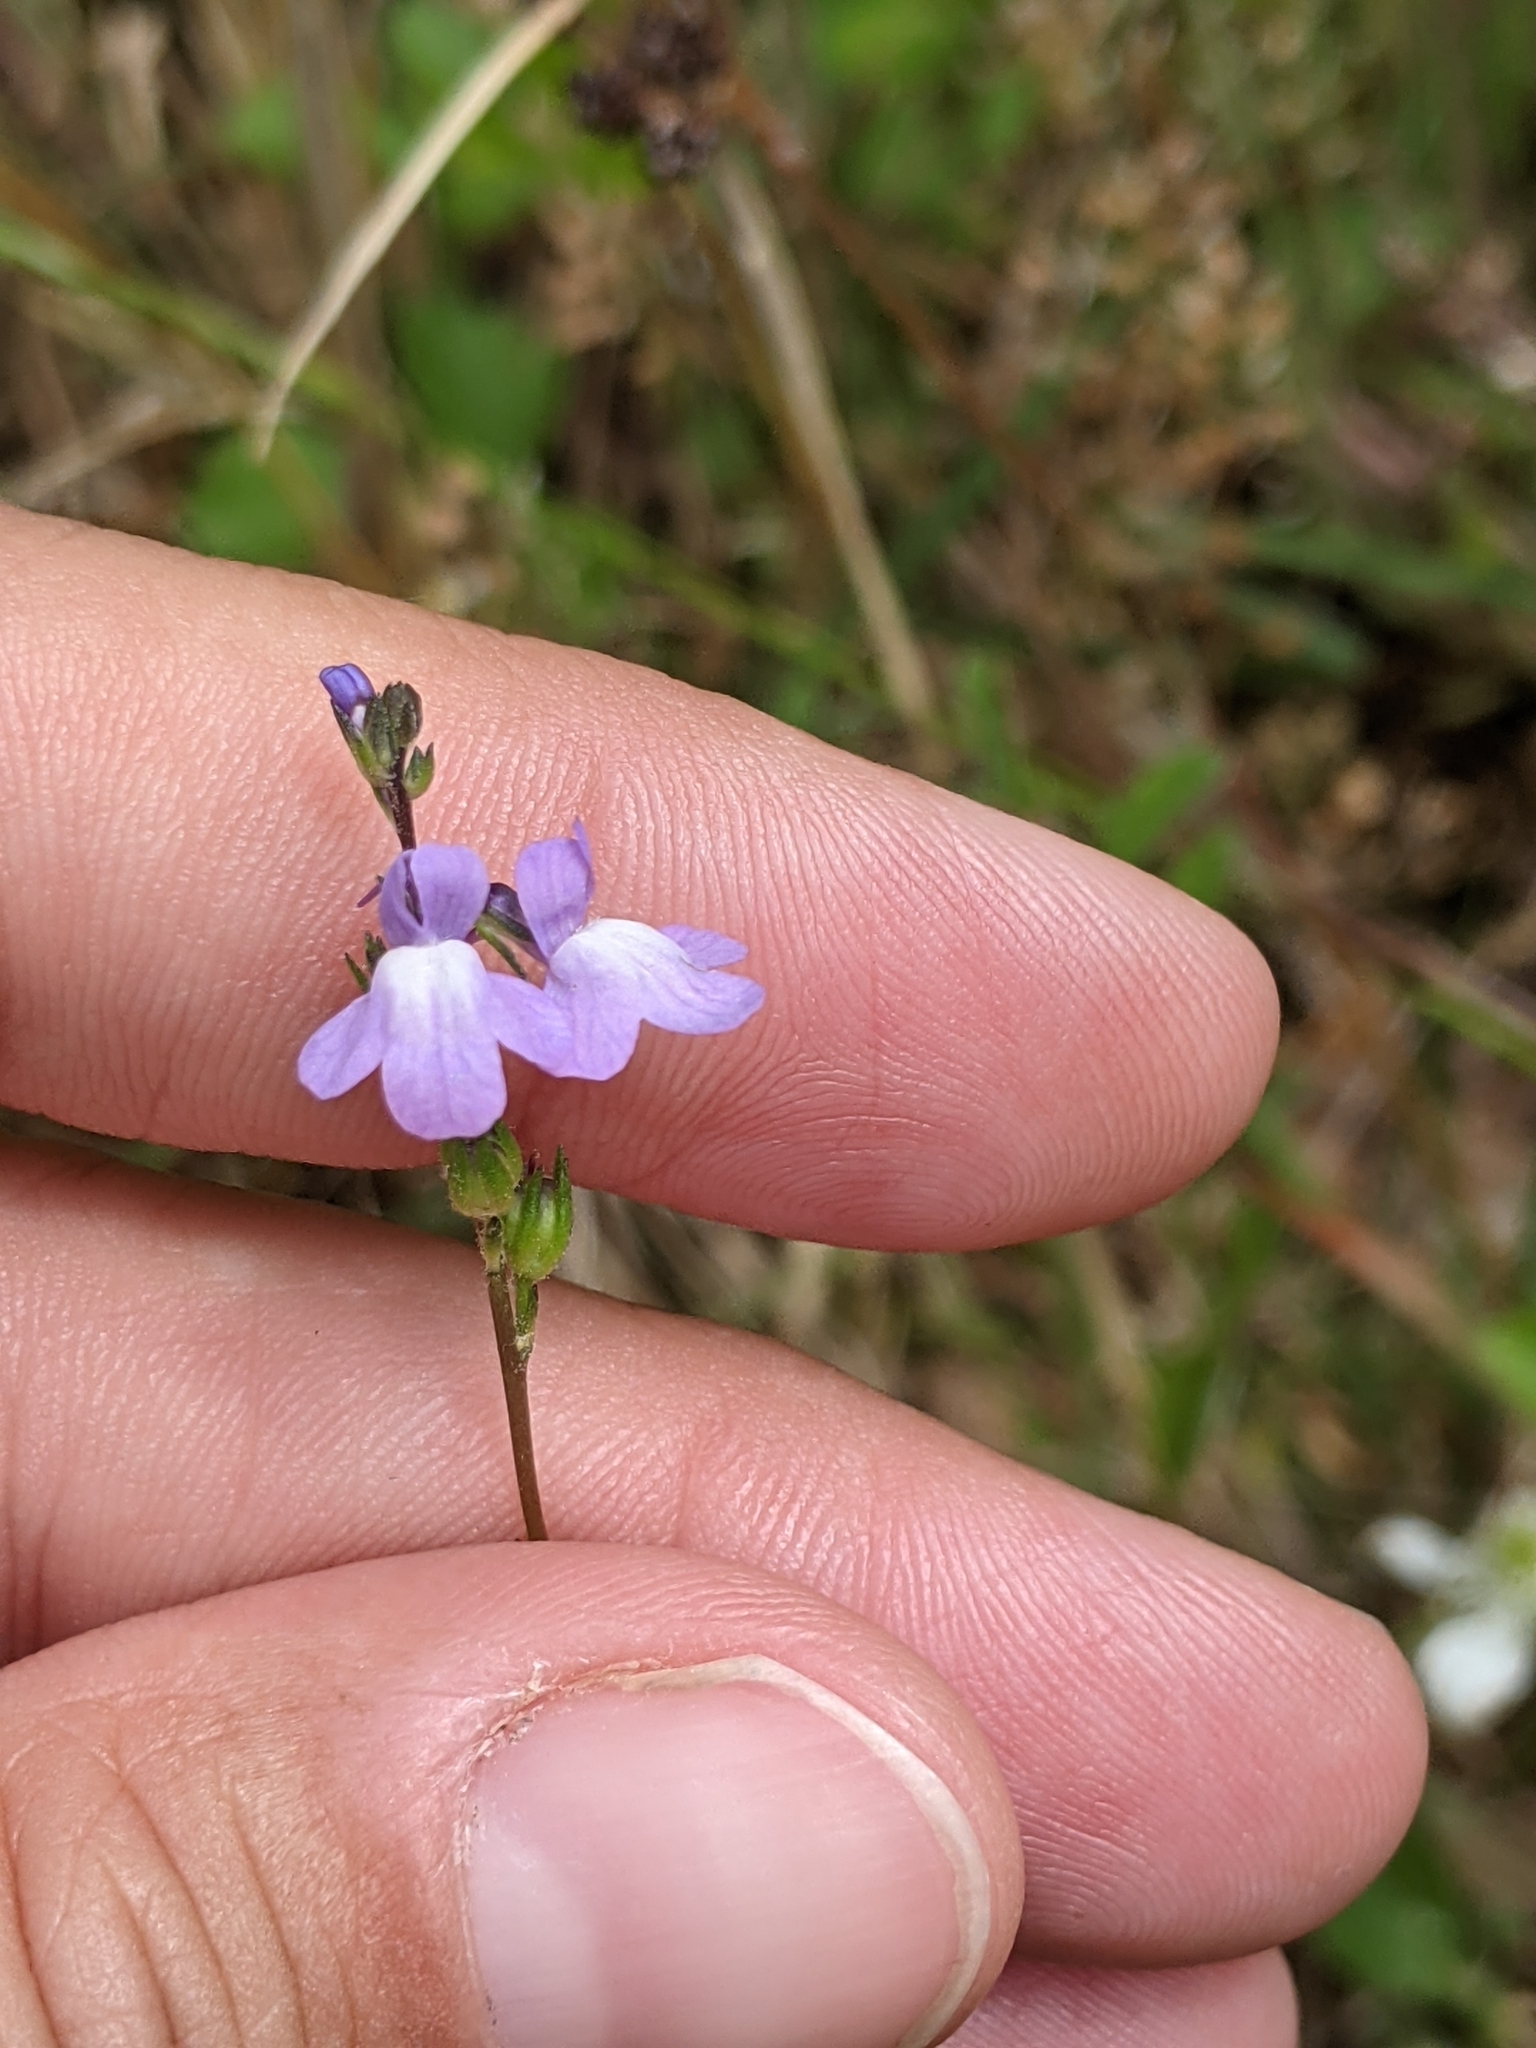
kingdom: Plantae
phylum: Tracheophyta
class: Magnoliopsida
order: Lamiales
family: Plantaginaceae
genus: Nuttallanthus
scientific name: Nuttallanthus canadensis
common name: Blue toadflax
